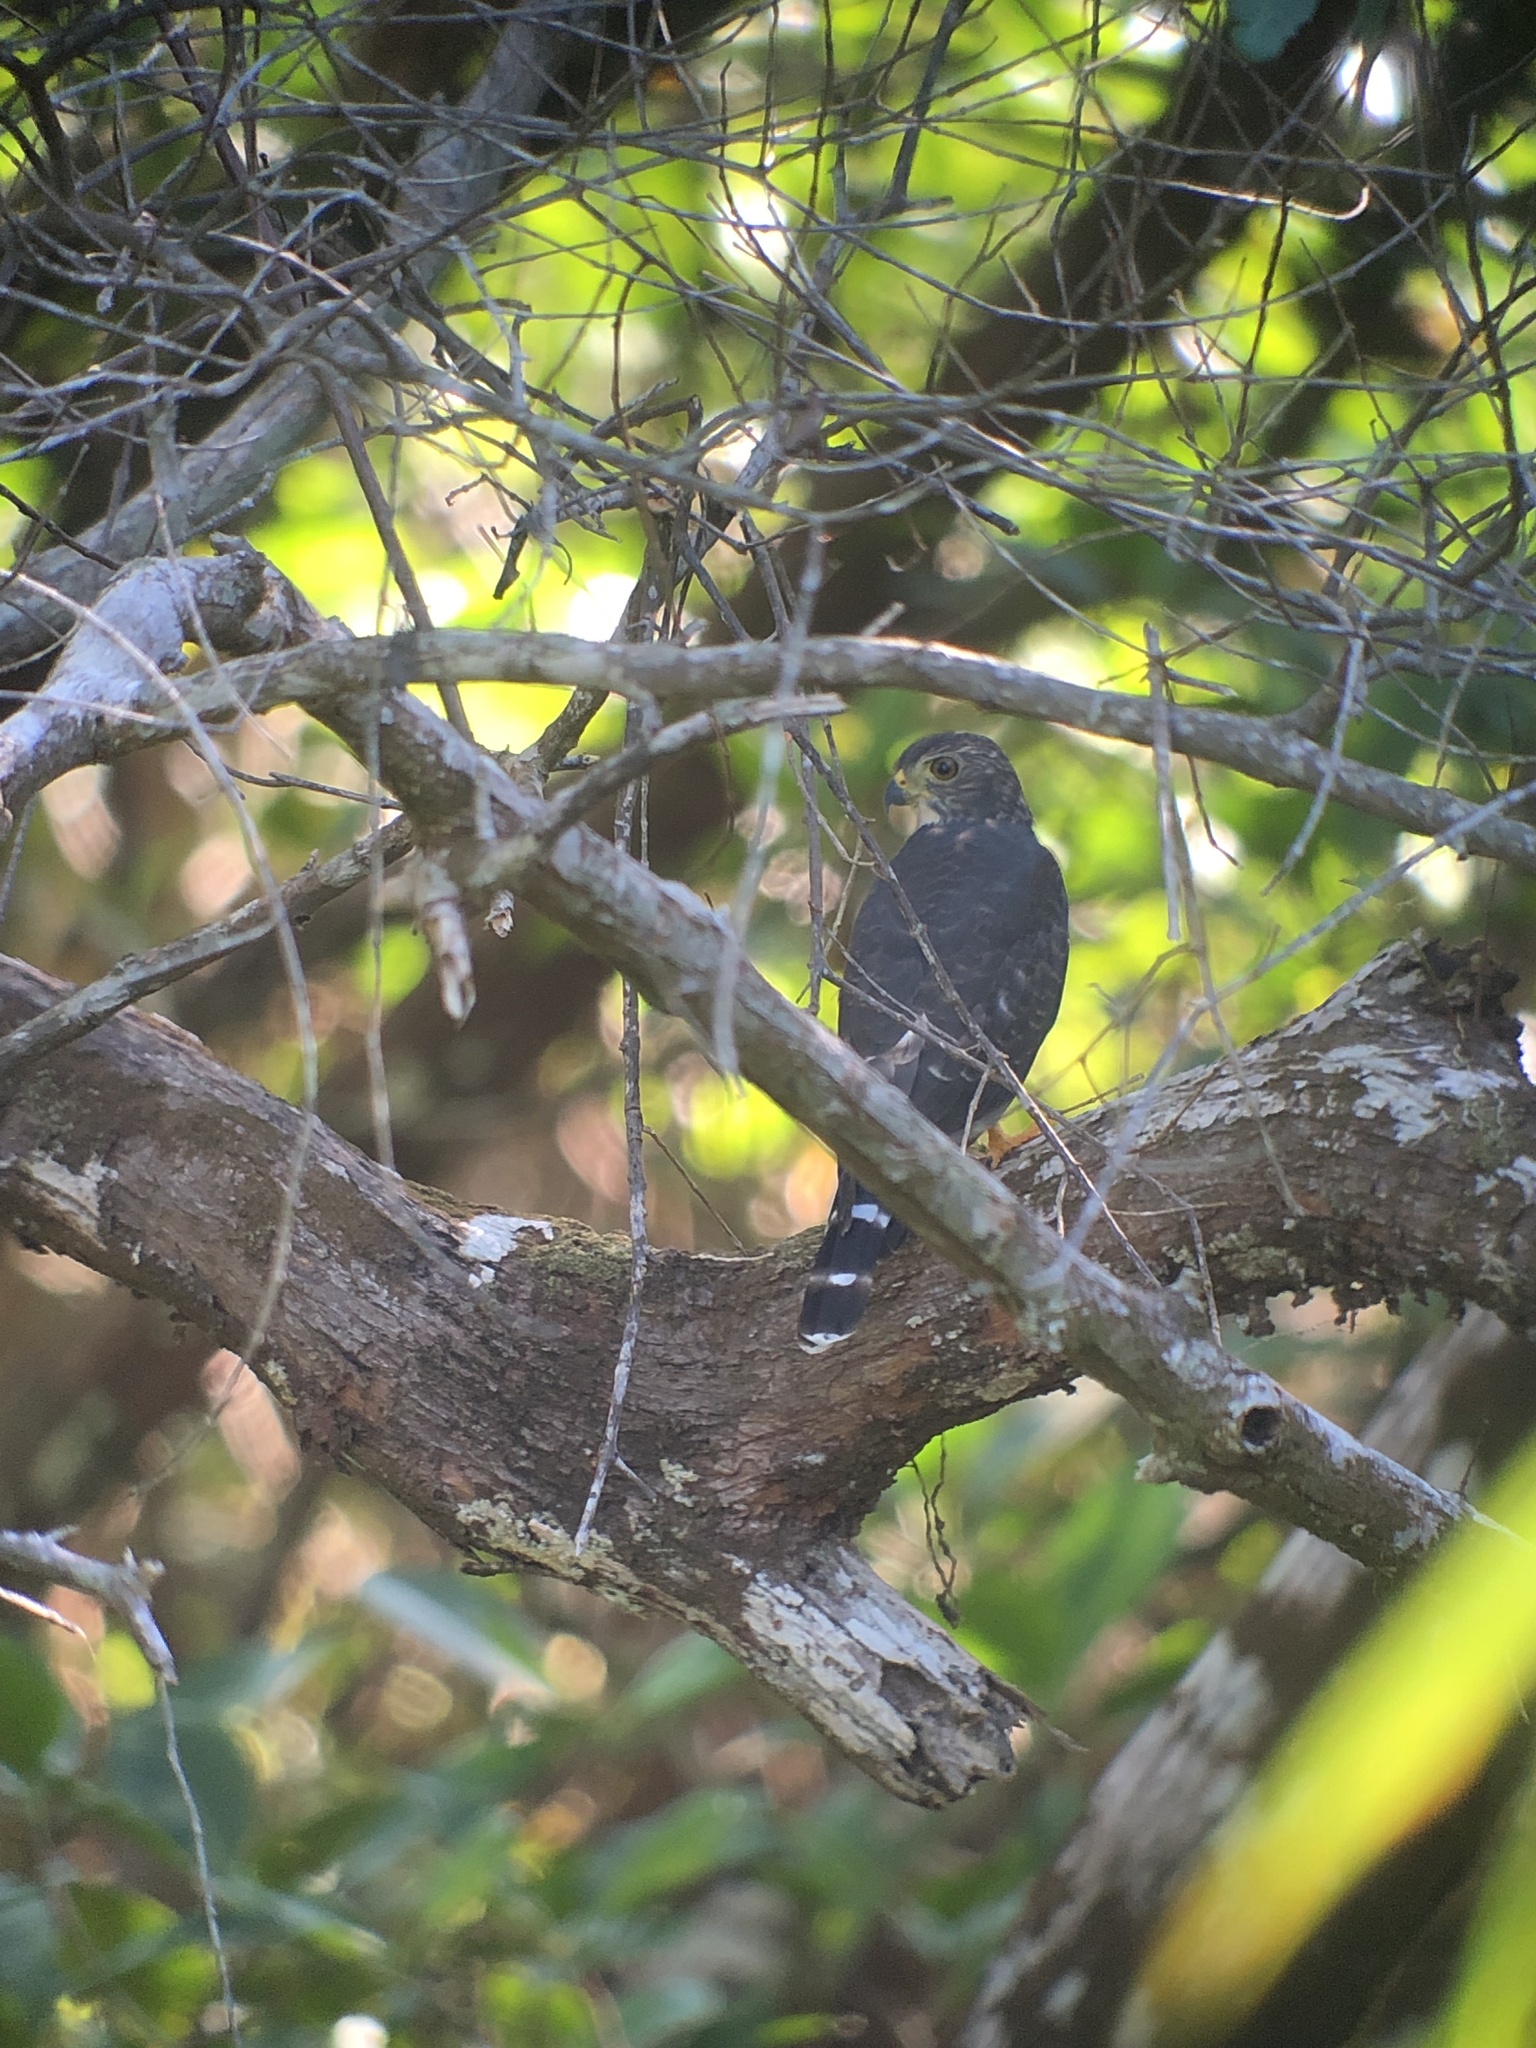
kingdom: Animalia
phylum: Chordata
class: Aves
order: Accipitriformes
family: Accipitridae
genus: Harpagus
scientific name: Harpagus bidentatus
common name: Double-toothed kite
